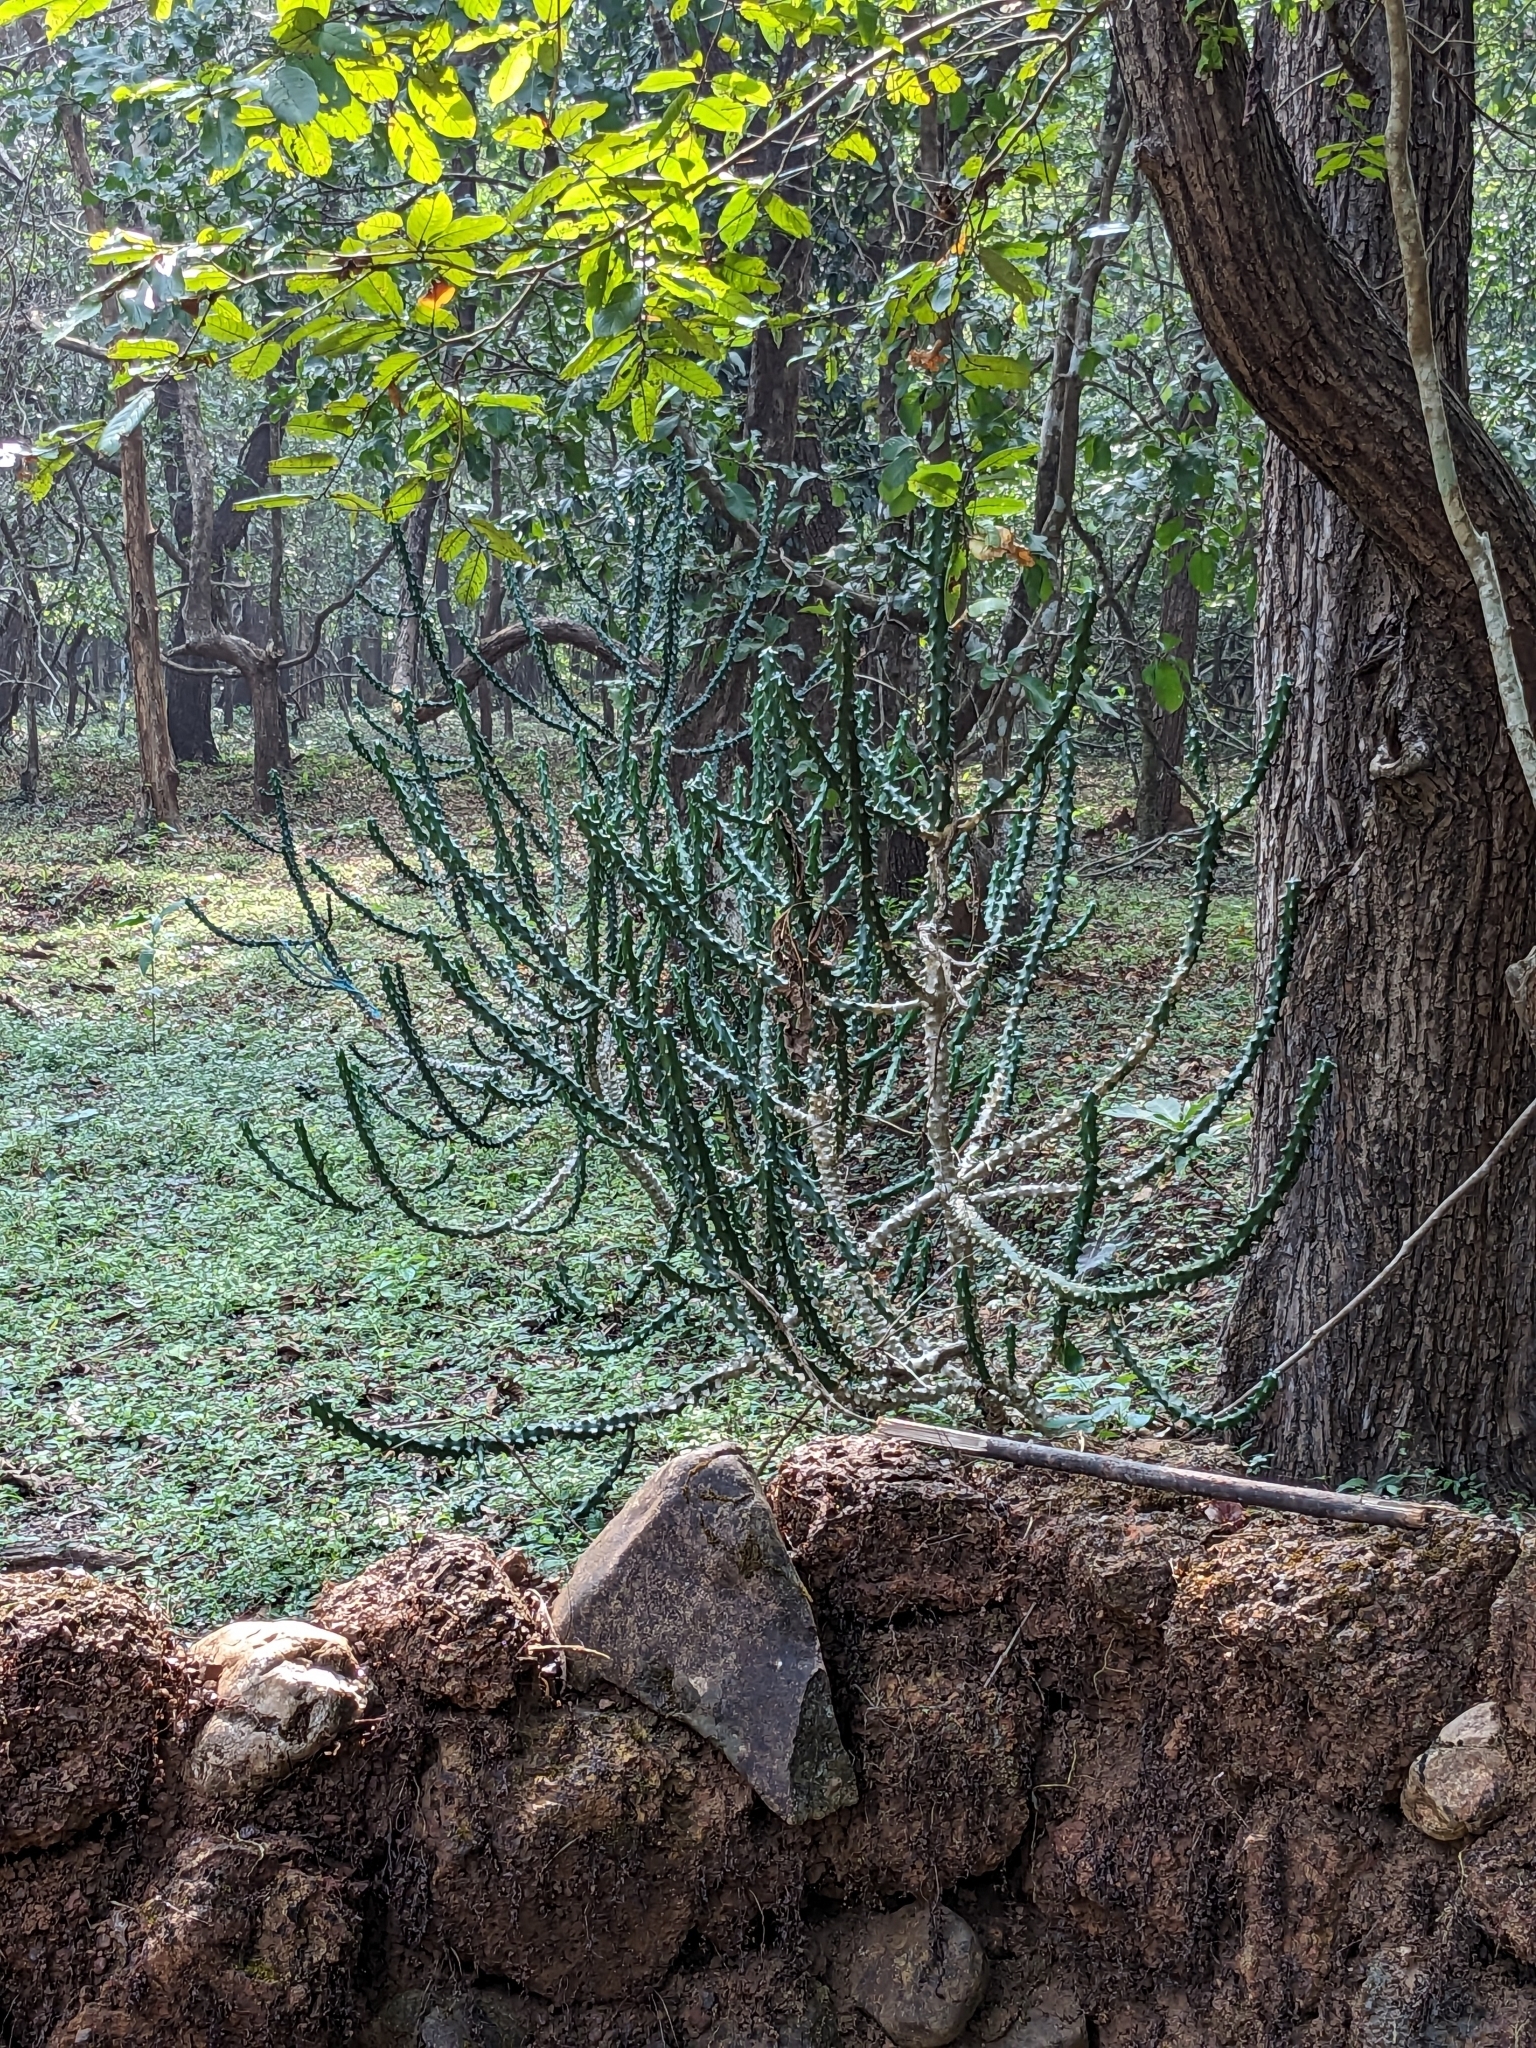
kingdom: Plantae
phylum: Tracheophyta
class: Magnoliopsida
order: Malpighiales
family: Euphorbiaceae
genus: Euphorbia
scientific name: Euphorbia neriifolia
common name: Hedge euphorbia
